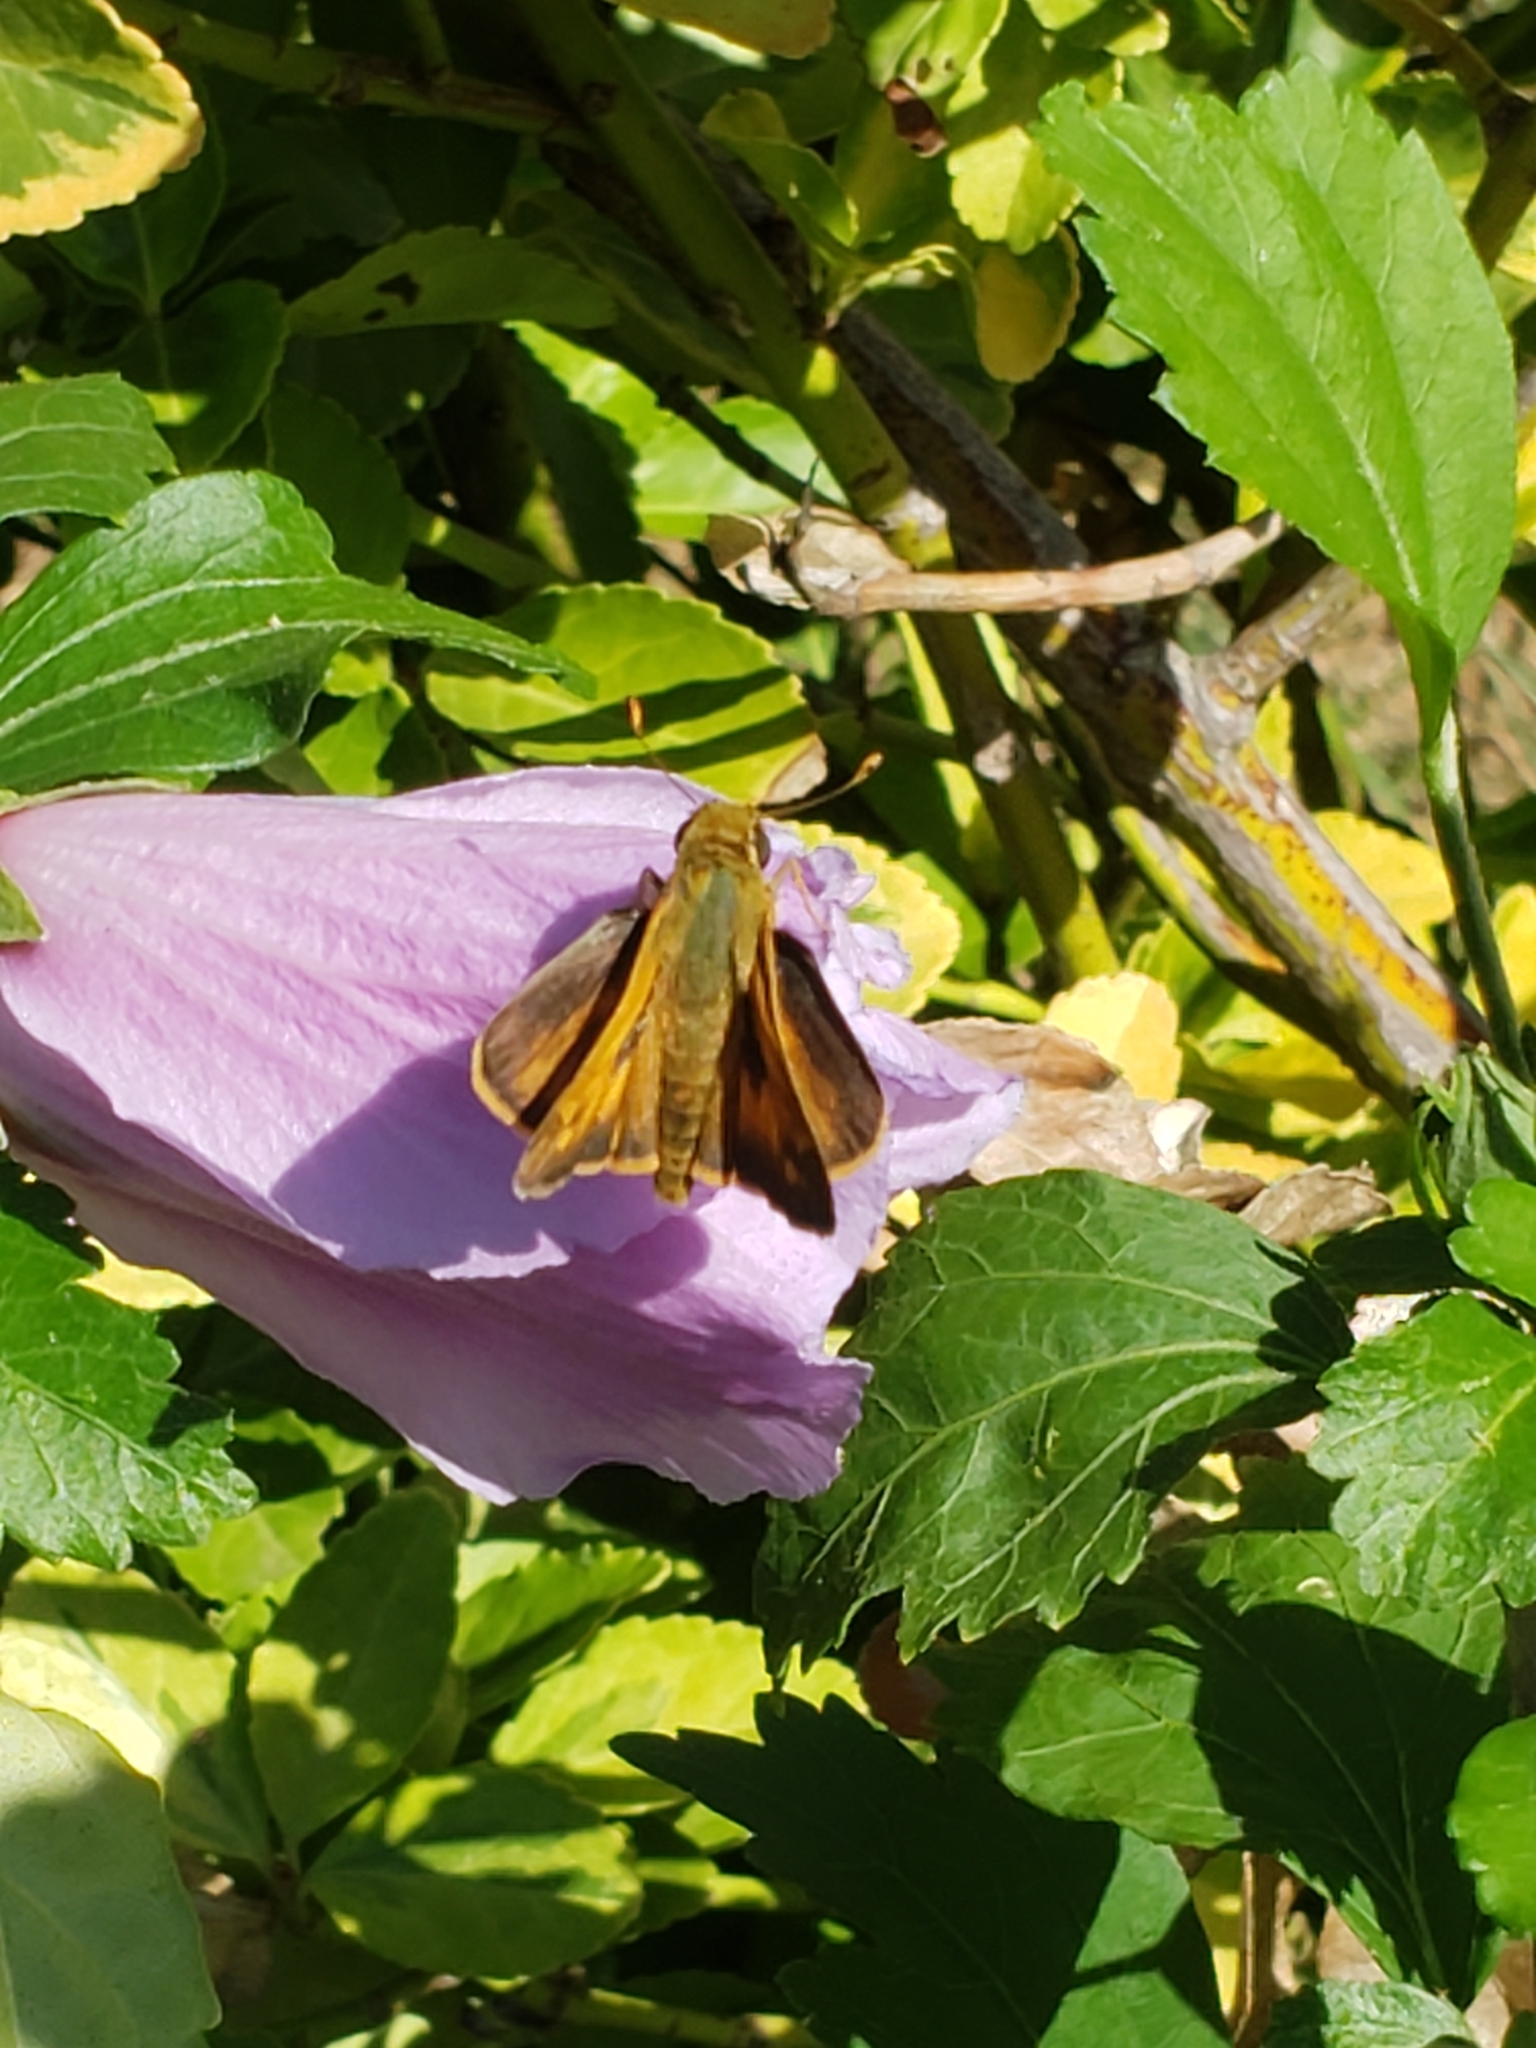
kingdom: Animalia
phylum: Arthropoda
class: Insecta
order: Lepidoptera
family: Hesperiidae
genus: Atalopedes
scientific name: Atalopedes
